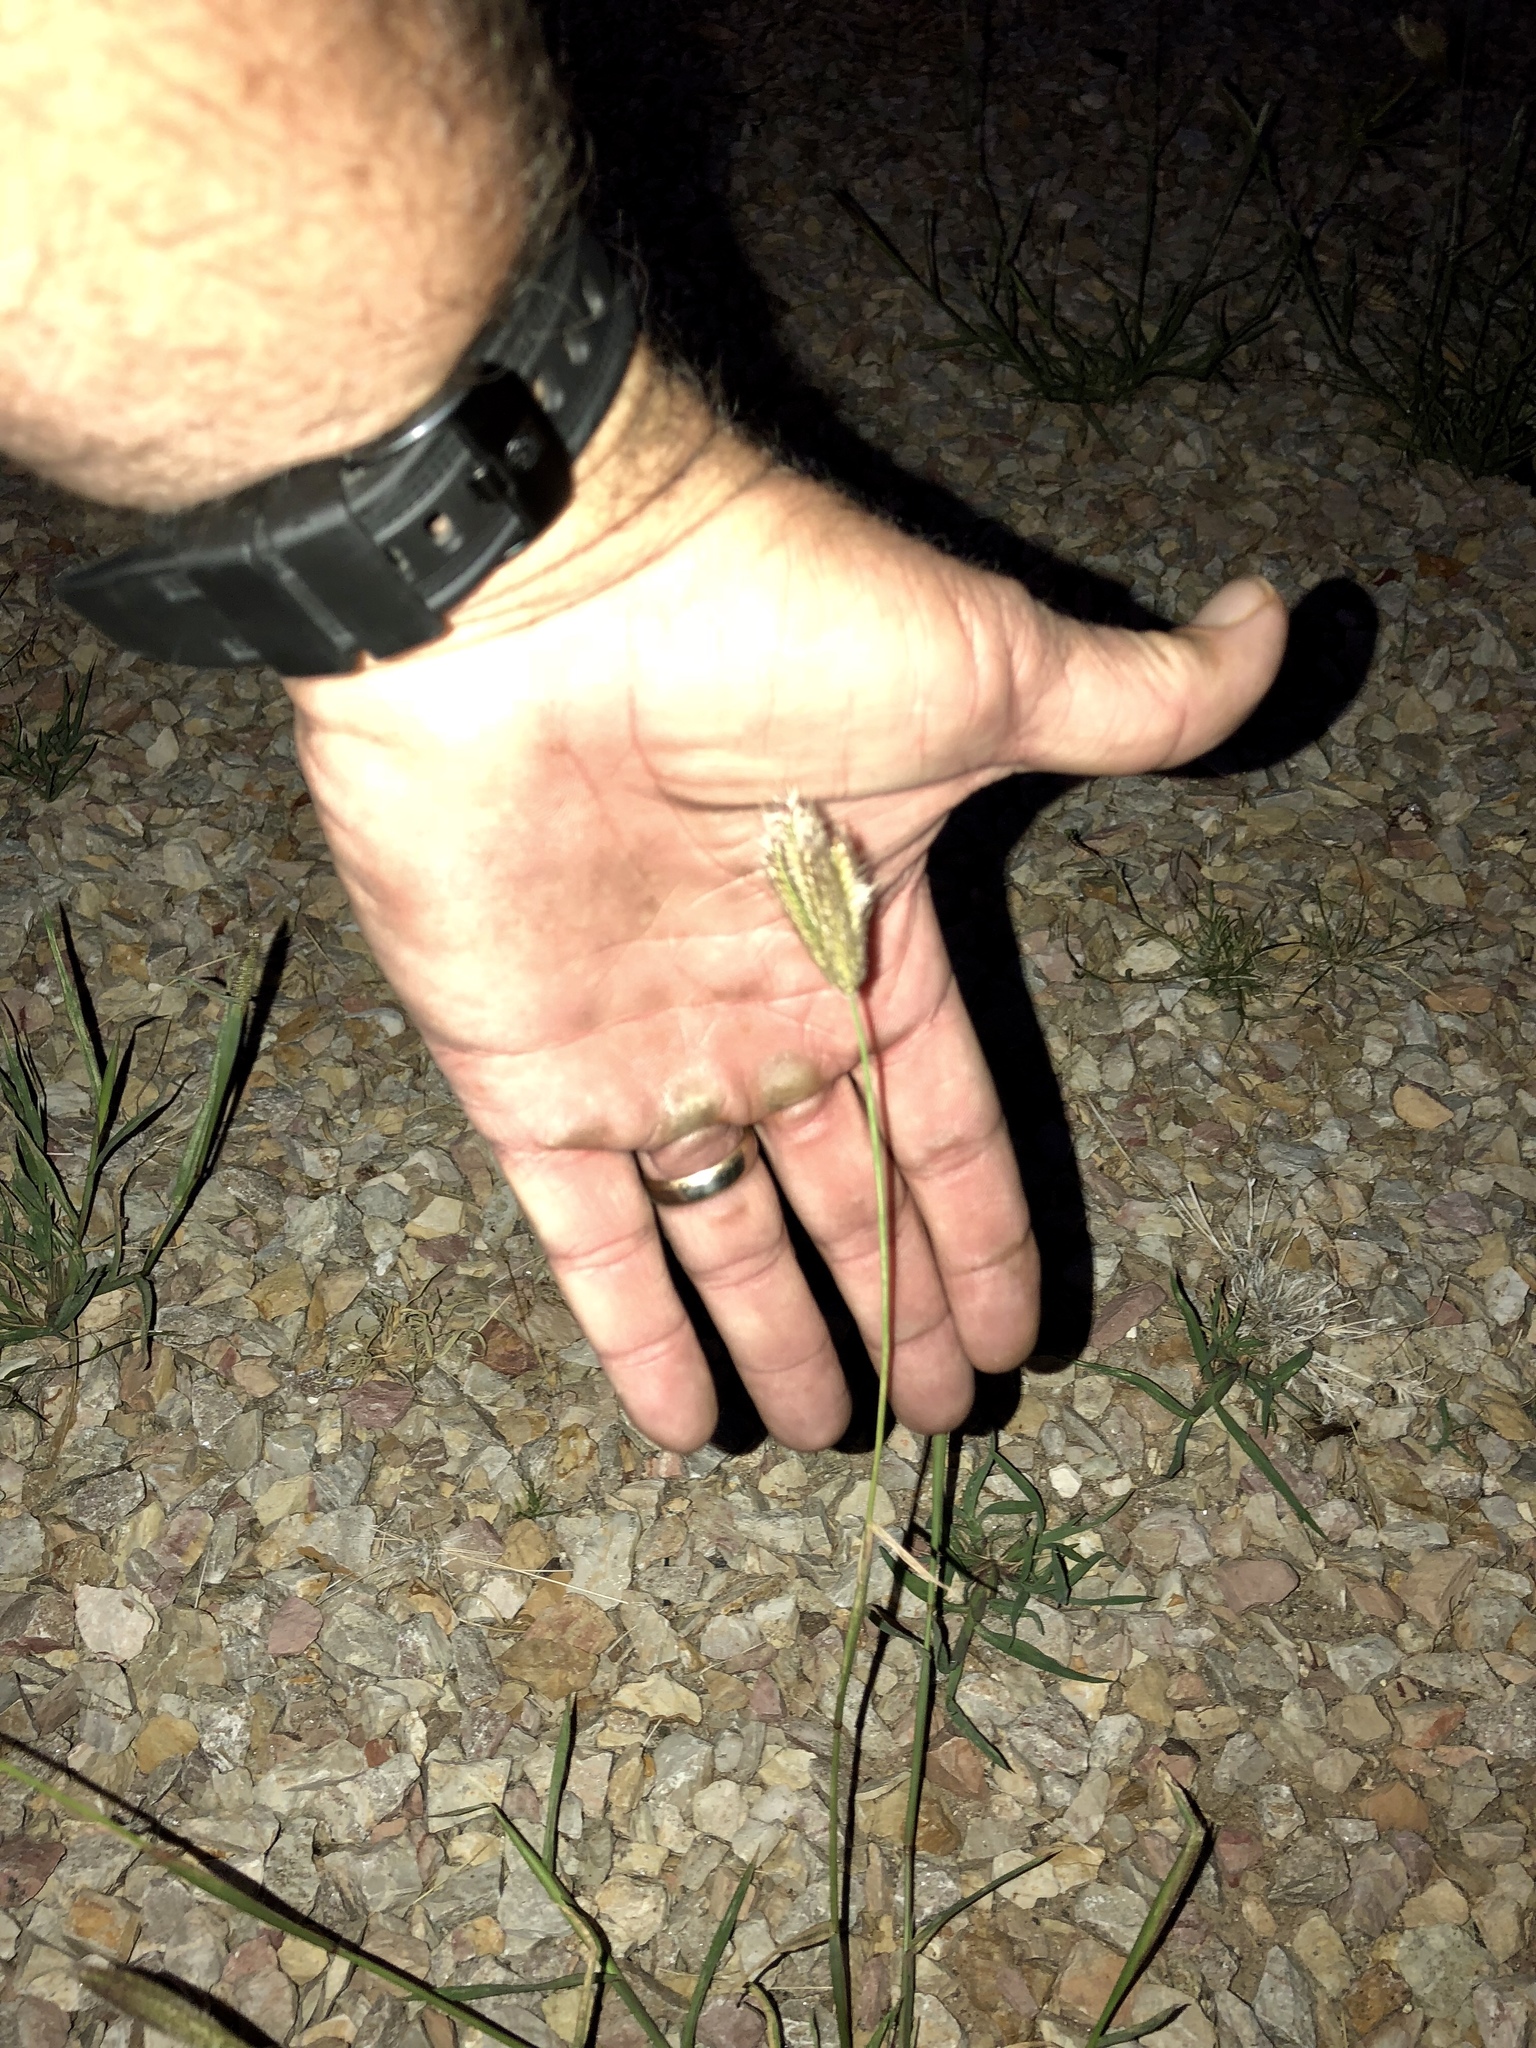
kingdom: Plantae
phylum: Tracheophyta
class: Liliopsida
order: Poales
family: Poaceae
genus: Chloris
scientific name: Chloris virgata
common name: Feathery rhodes-grass
